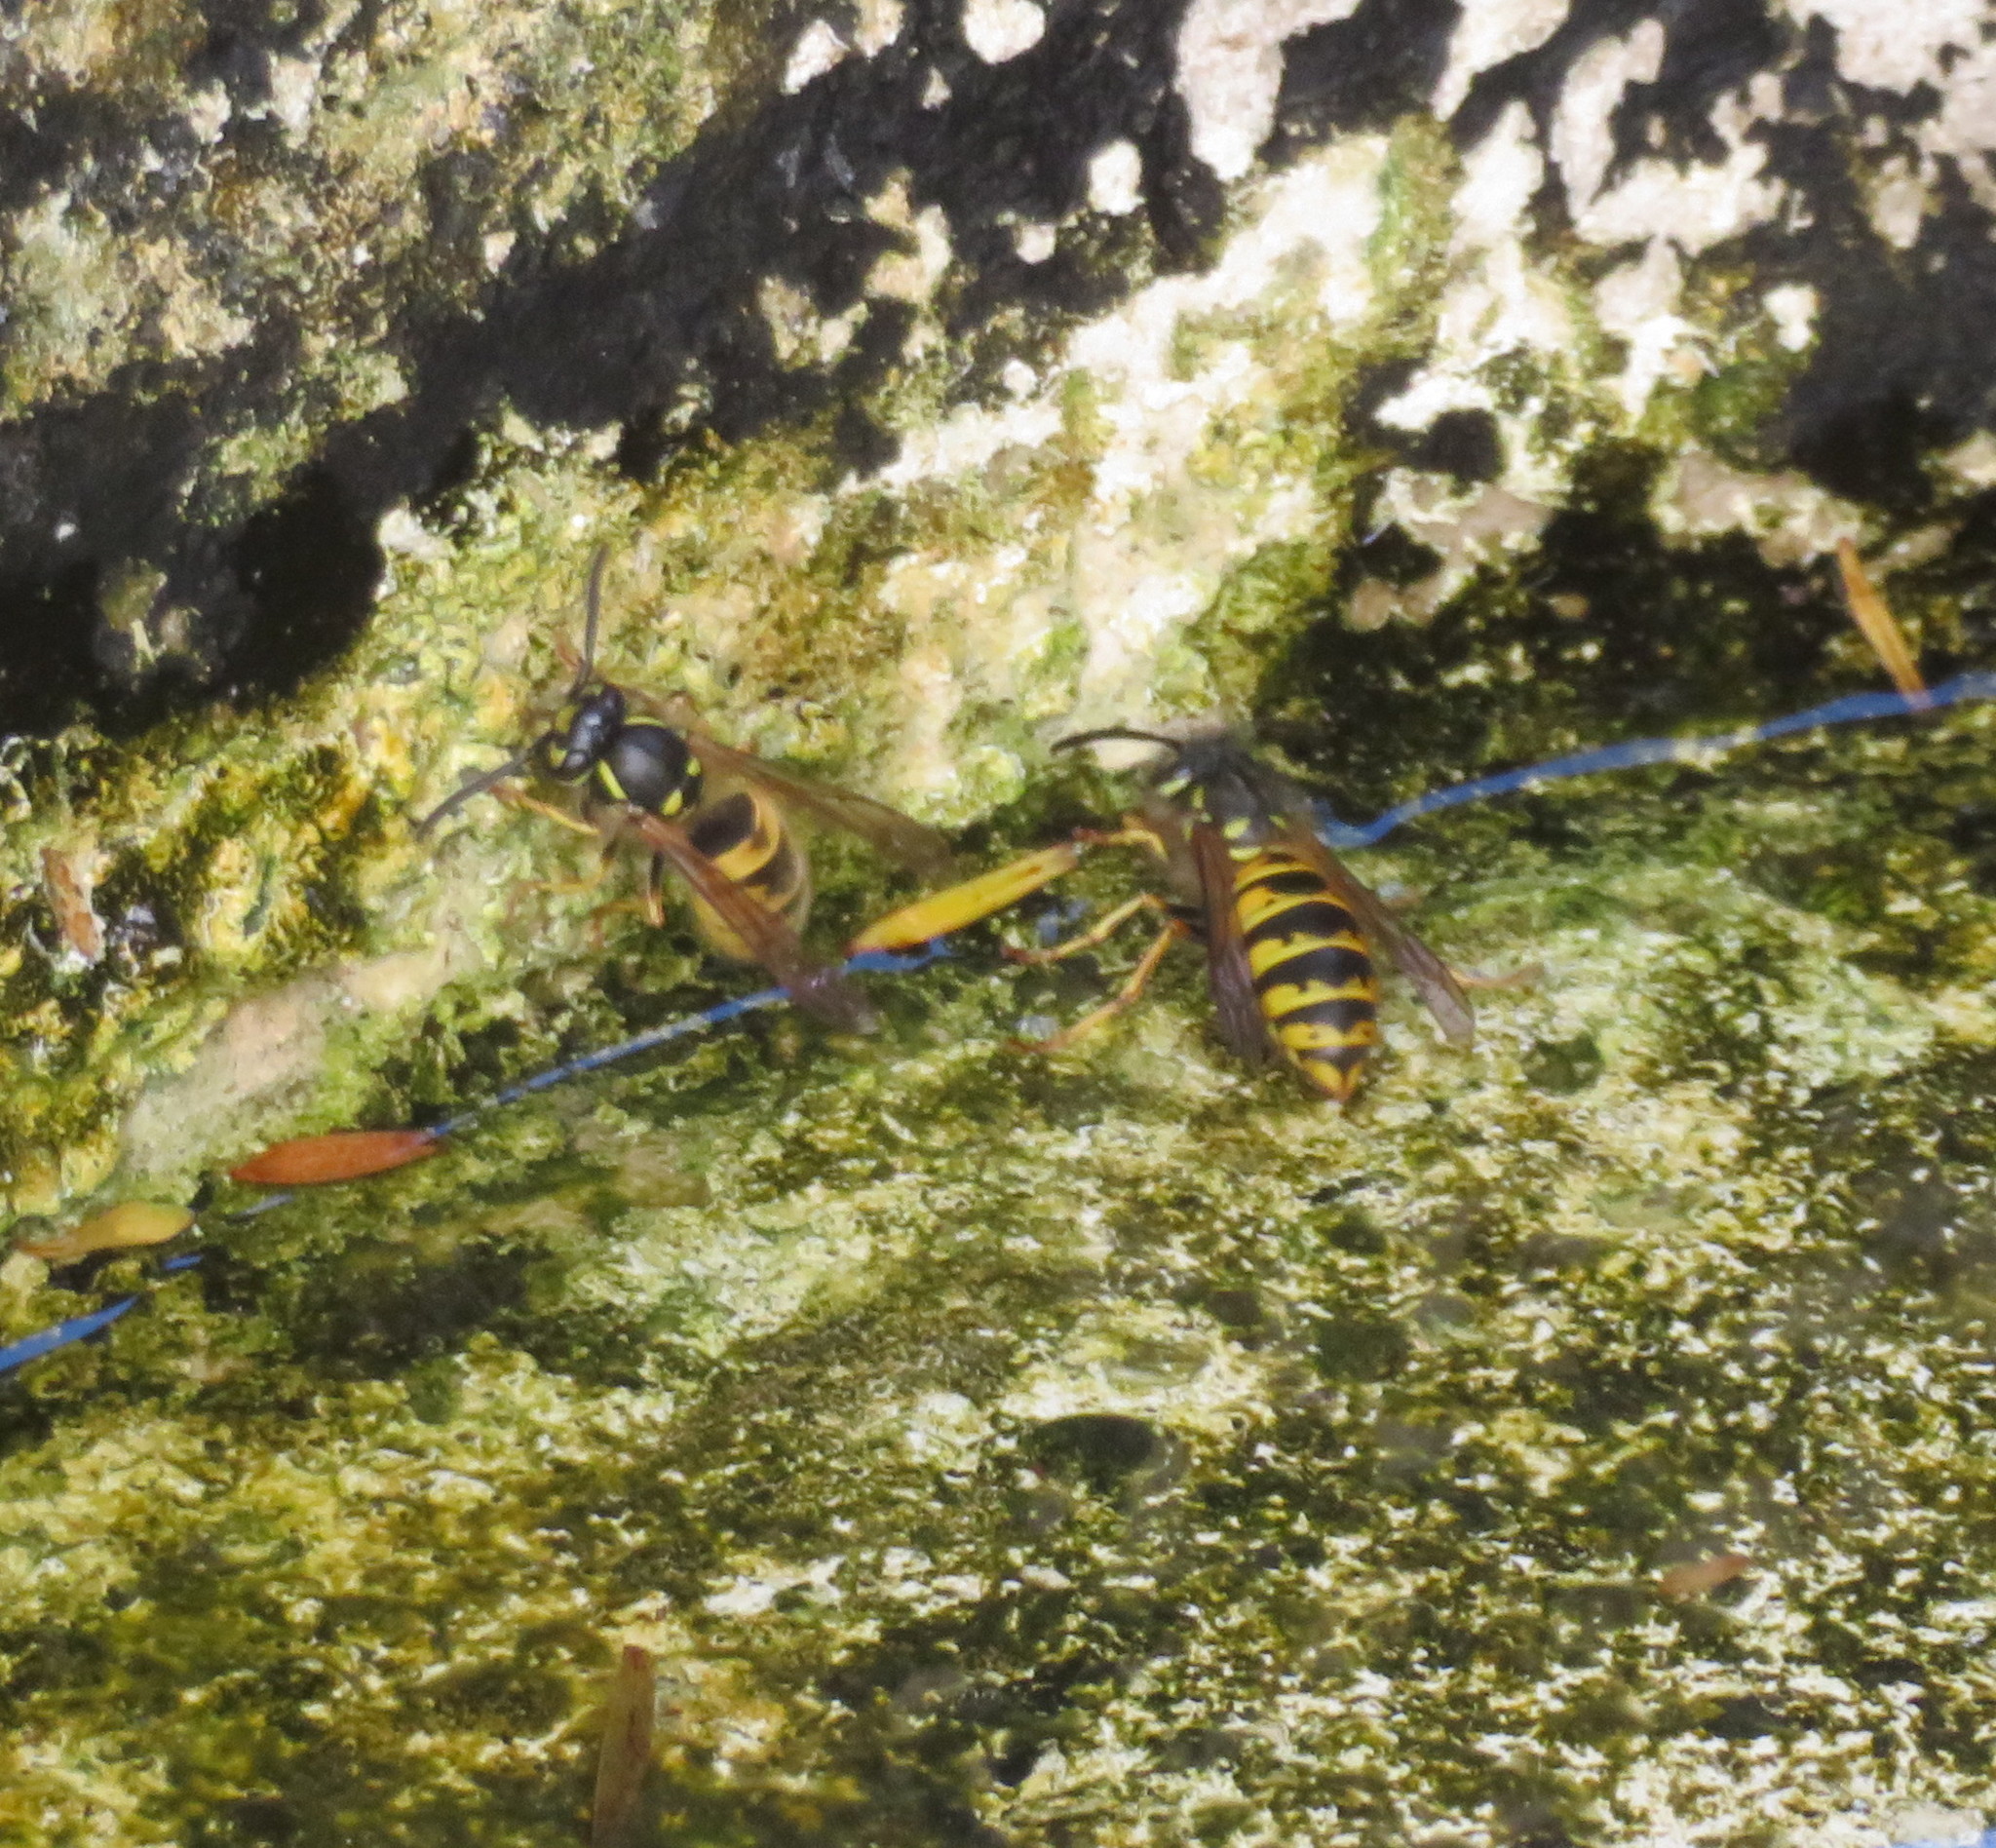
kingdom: Animalia
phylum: Arthropoda
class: Insecta
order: Hymenoptera
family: Vespidae
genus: Vespula
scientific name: Vespula vulgaris
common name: Common wasp
